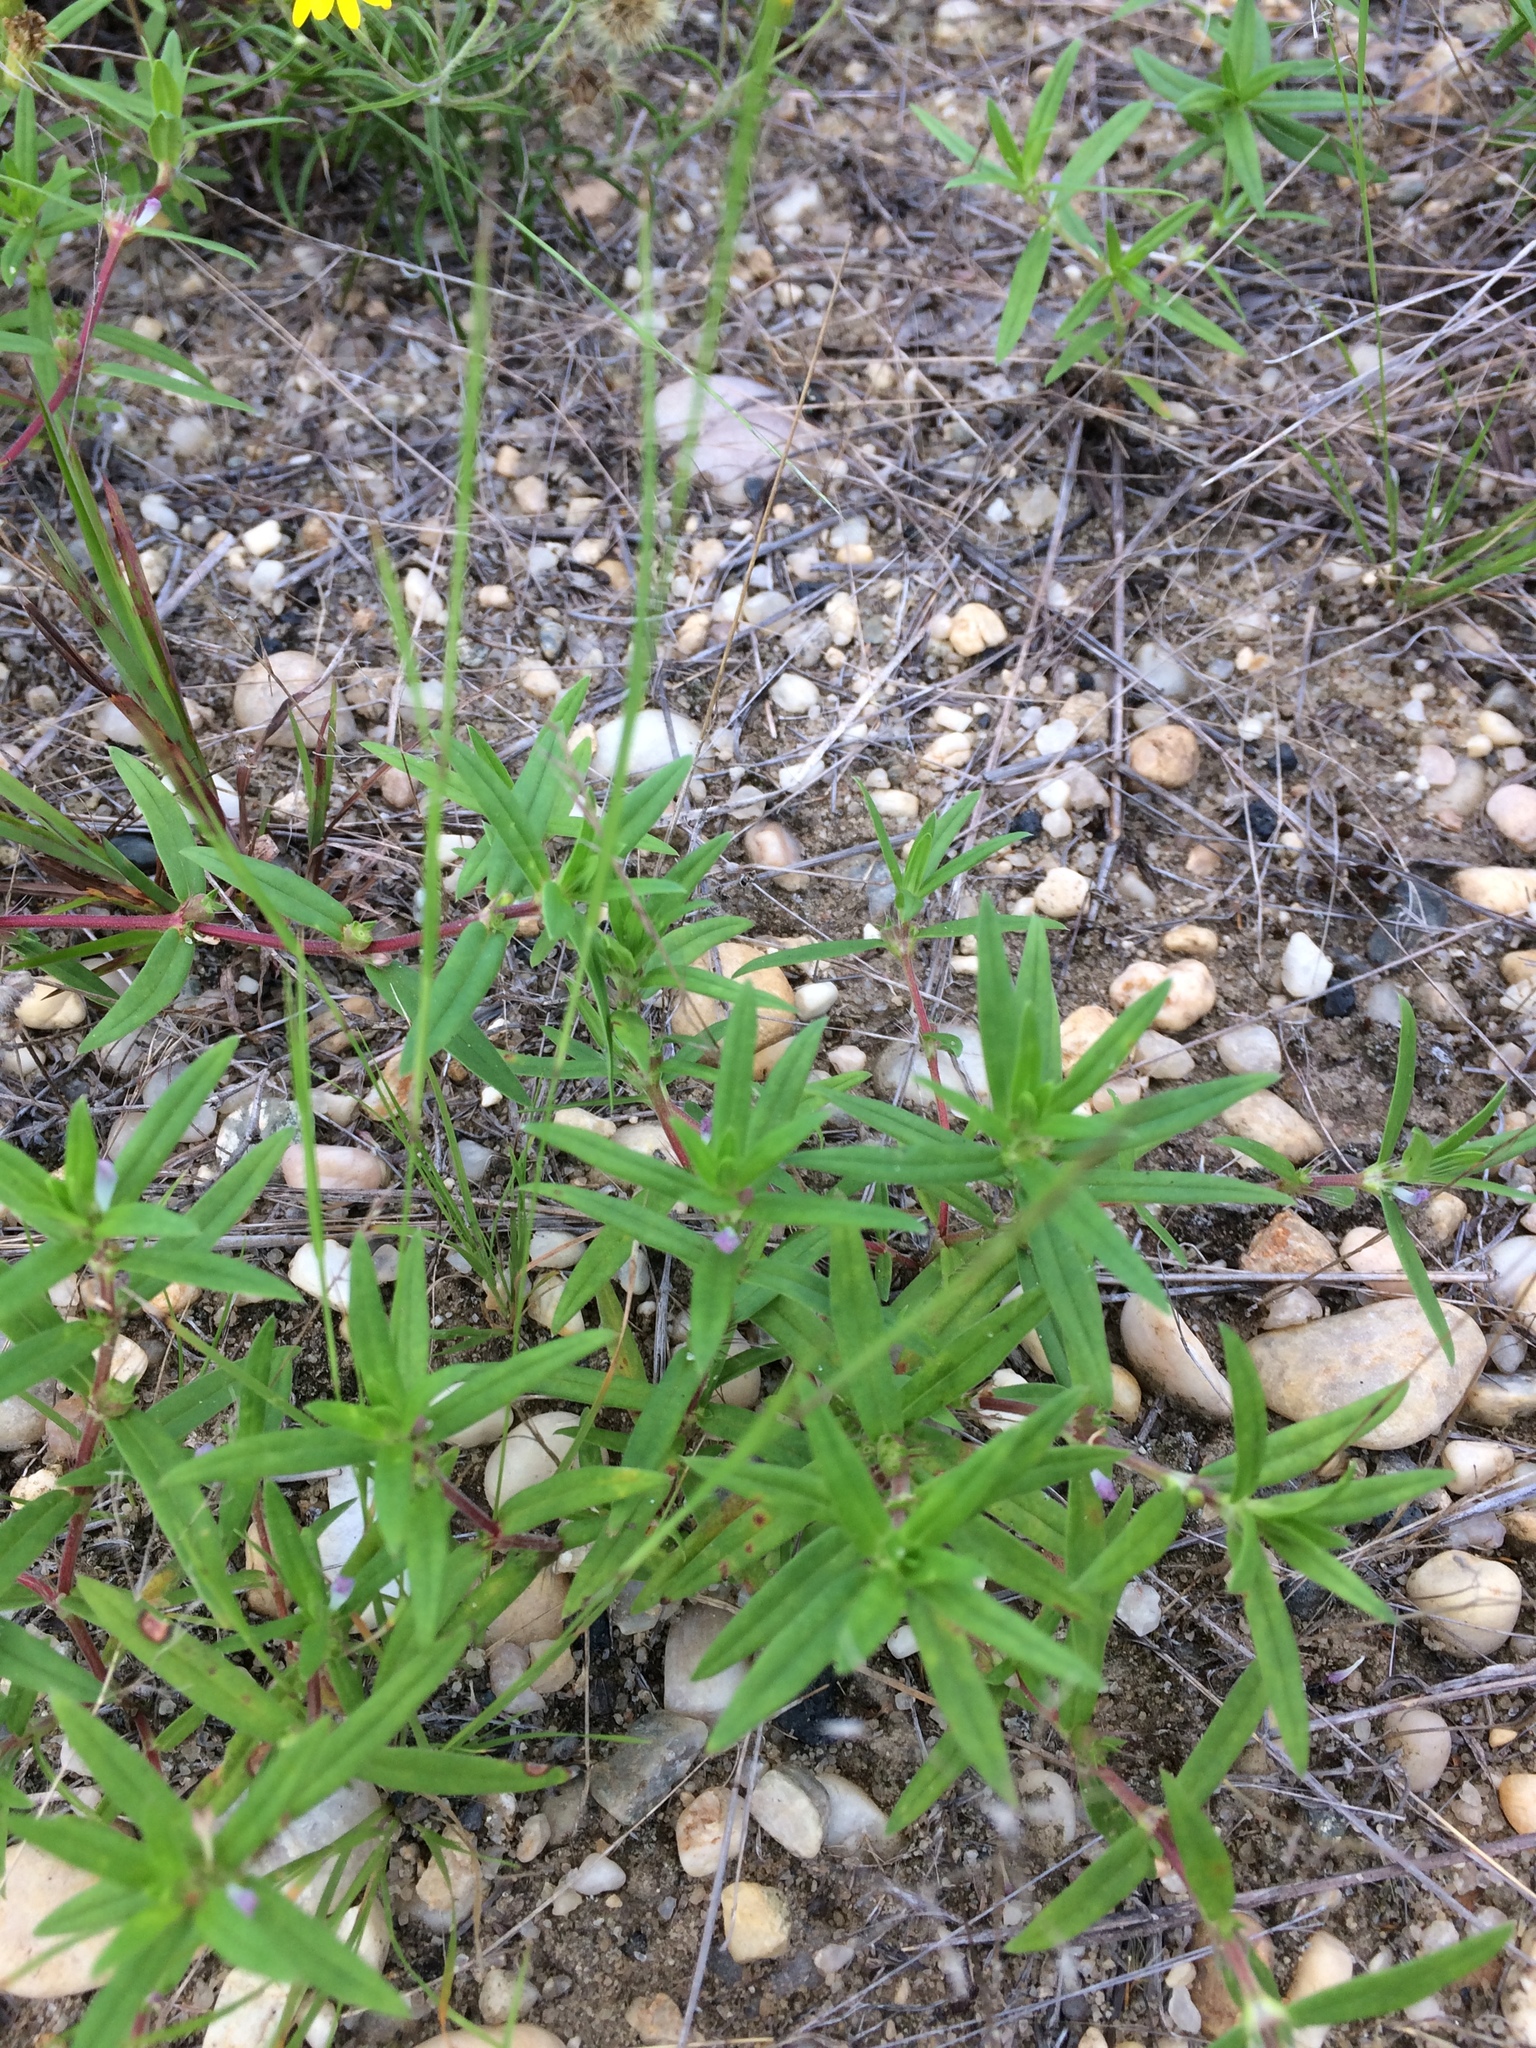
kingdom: Plantae
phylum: Tracheophyta
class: Magnoliopsida
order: Gentianales
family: Rubiaceae
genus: Hexasepalum
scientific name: Hexasepalum teres
